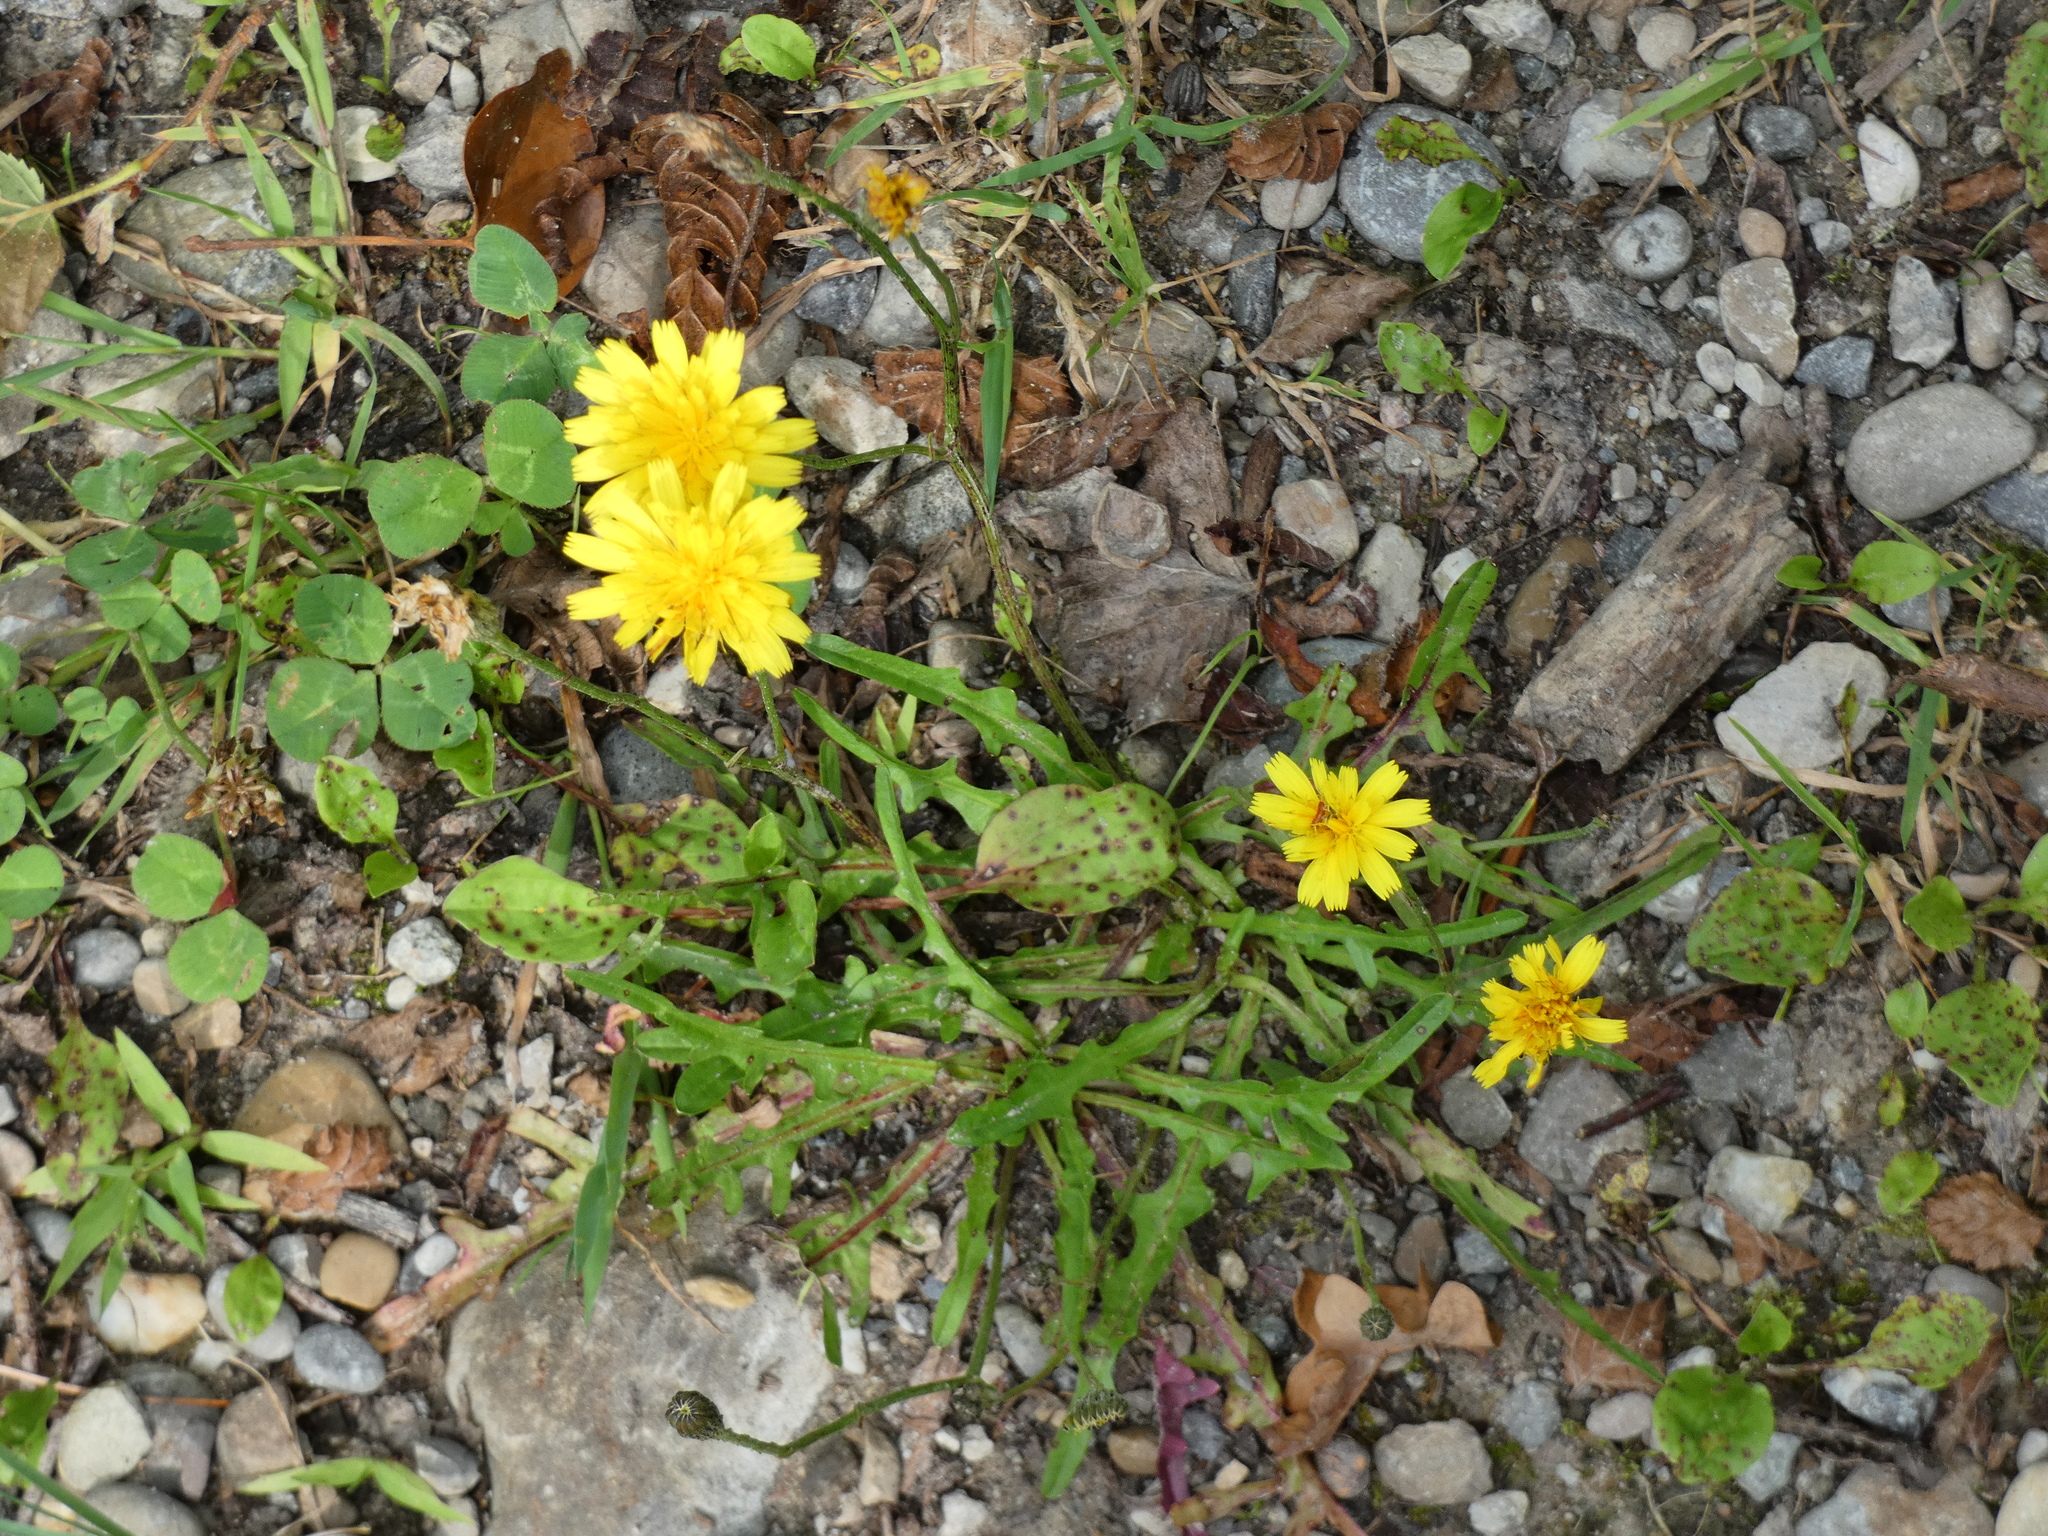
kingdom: Plantae
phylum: Tracheophyta
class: Magnoliopsida
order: Asterales
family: Asteraceae
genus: Scorzoneroides
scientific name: Scorzoneroides autumnalis
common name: Autumn hawkbit
